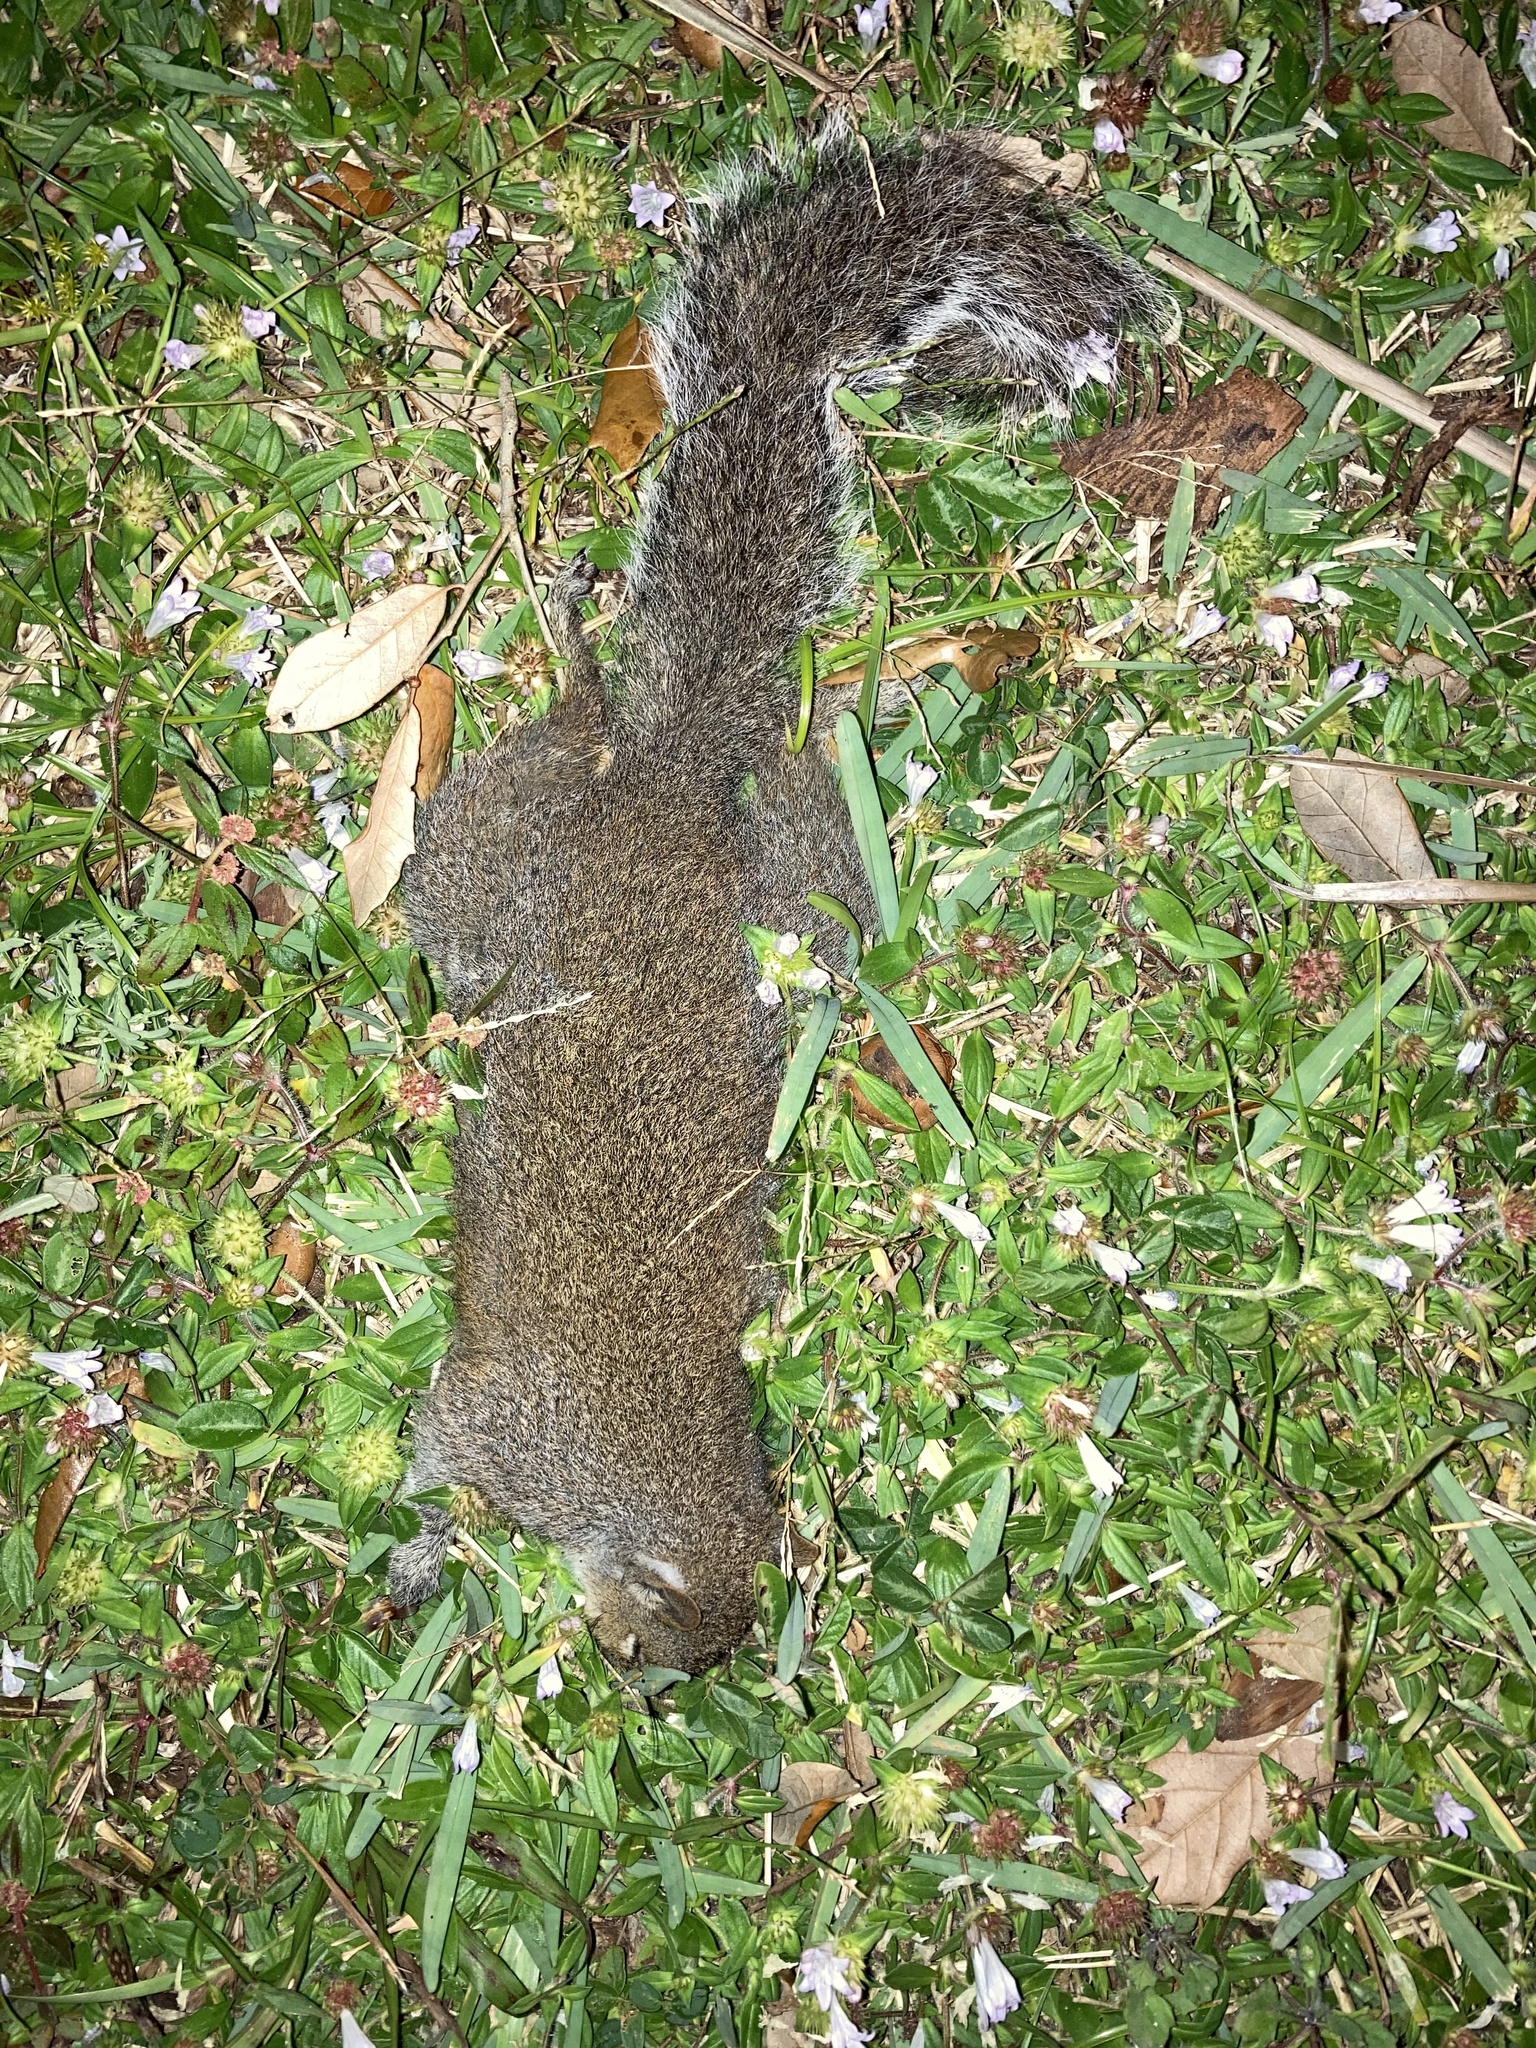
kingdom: Animalia
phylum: Chordata
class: Mammalia
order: Rodentia
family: Sciuridae
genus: Sciurus
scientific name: Sciurus carolinensis
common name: Eastern gray squirrel
